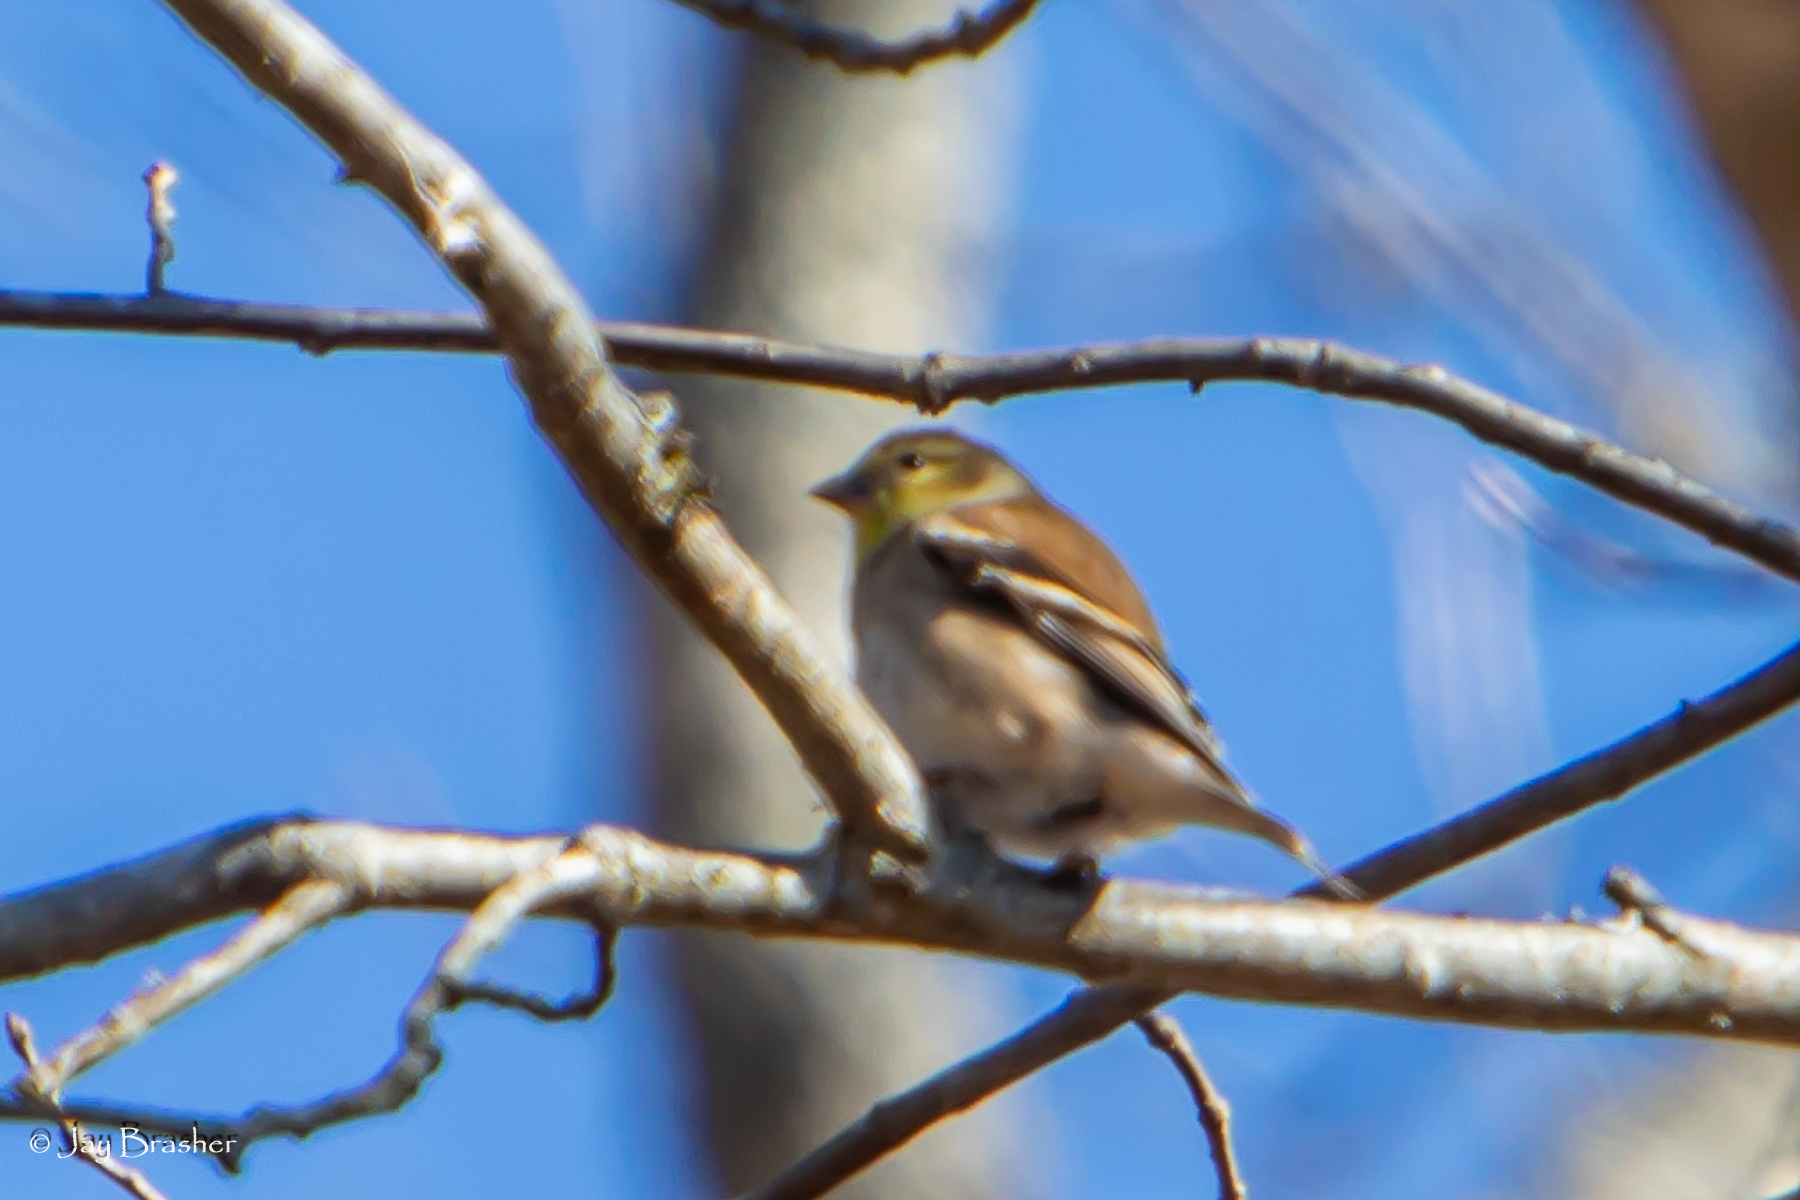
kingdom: Animalia
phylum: Chordata
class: Aves
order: Passeriformes
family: Fringillidae
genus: Spinus
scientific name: Spinus tristis
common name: American goldfinch
